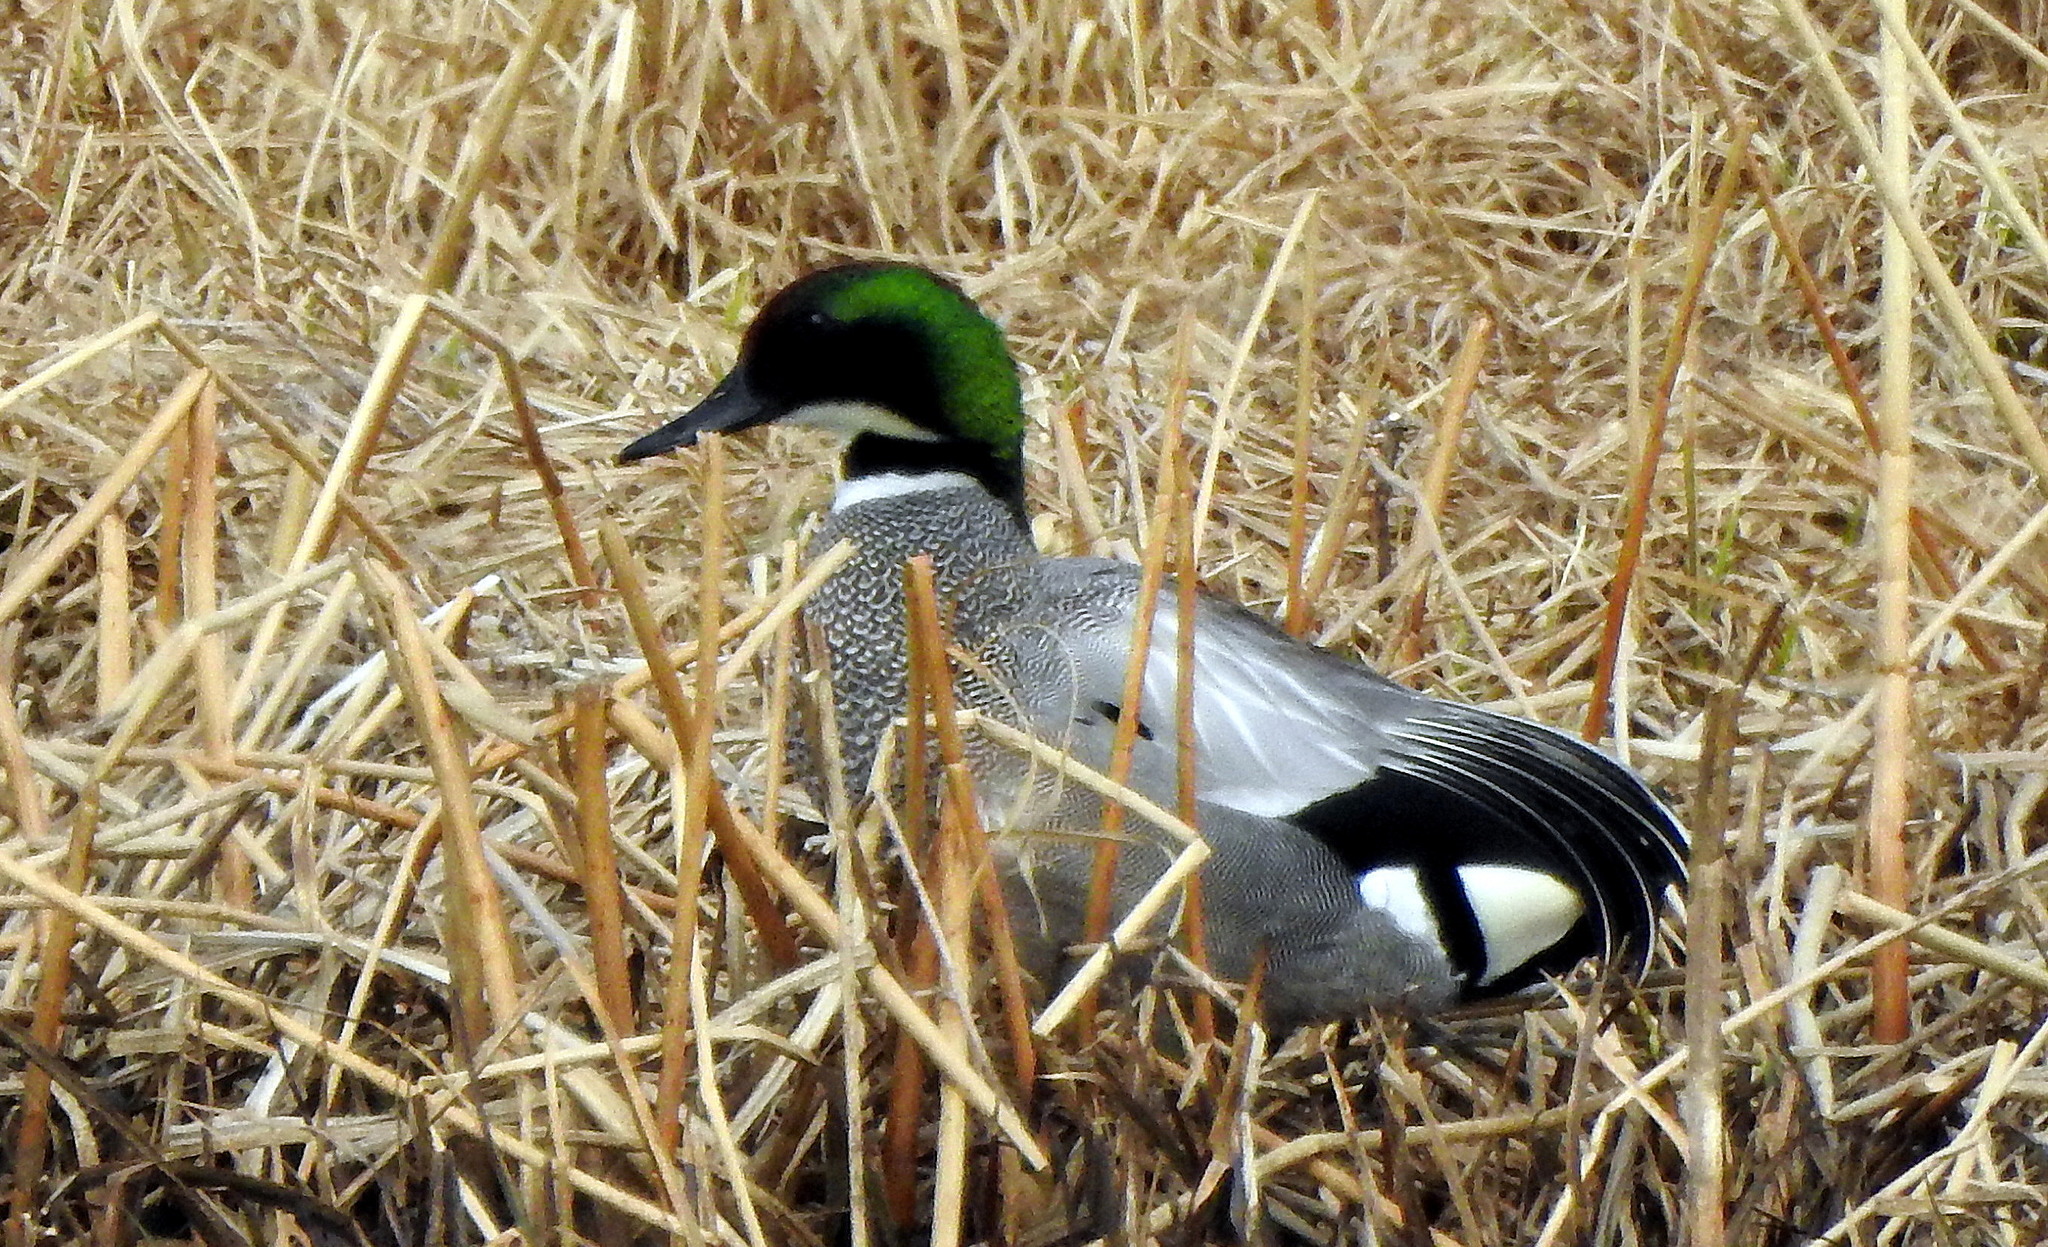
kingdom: Animalia
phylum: Chordata
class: Aves
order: Anseriformes
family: Anatidae
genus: Mareca
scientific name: Mareca falcata
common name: Falcated duck
